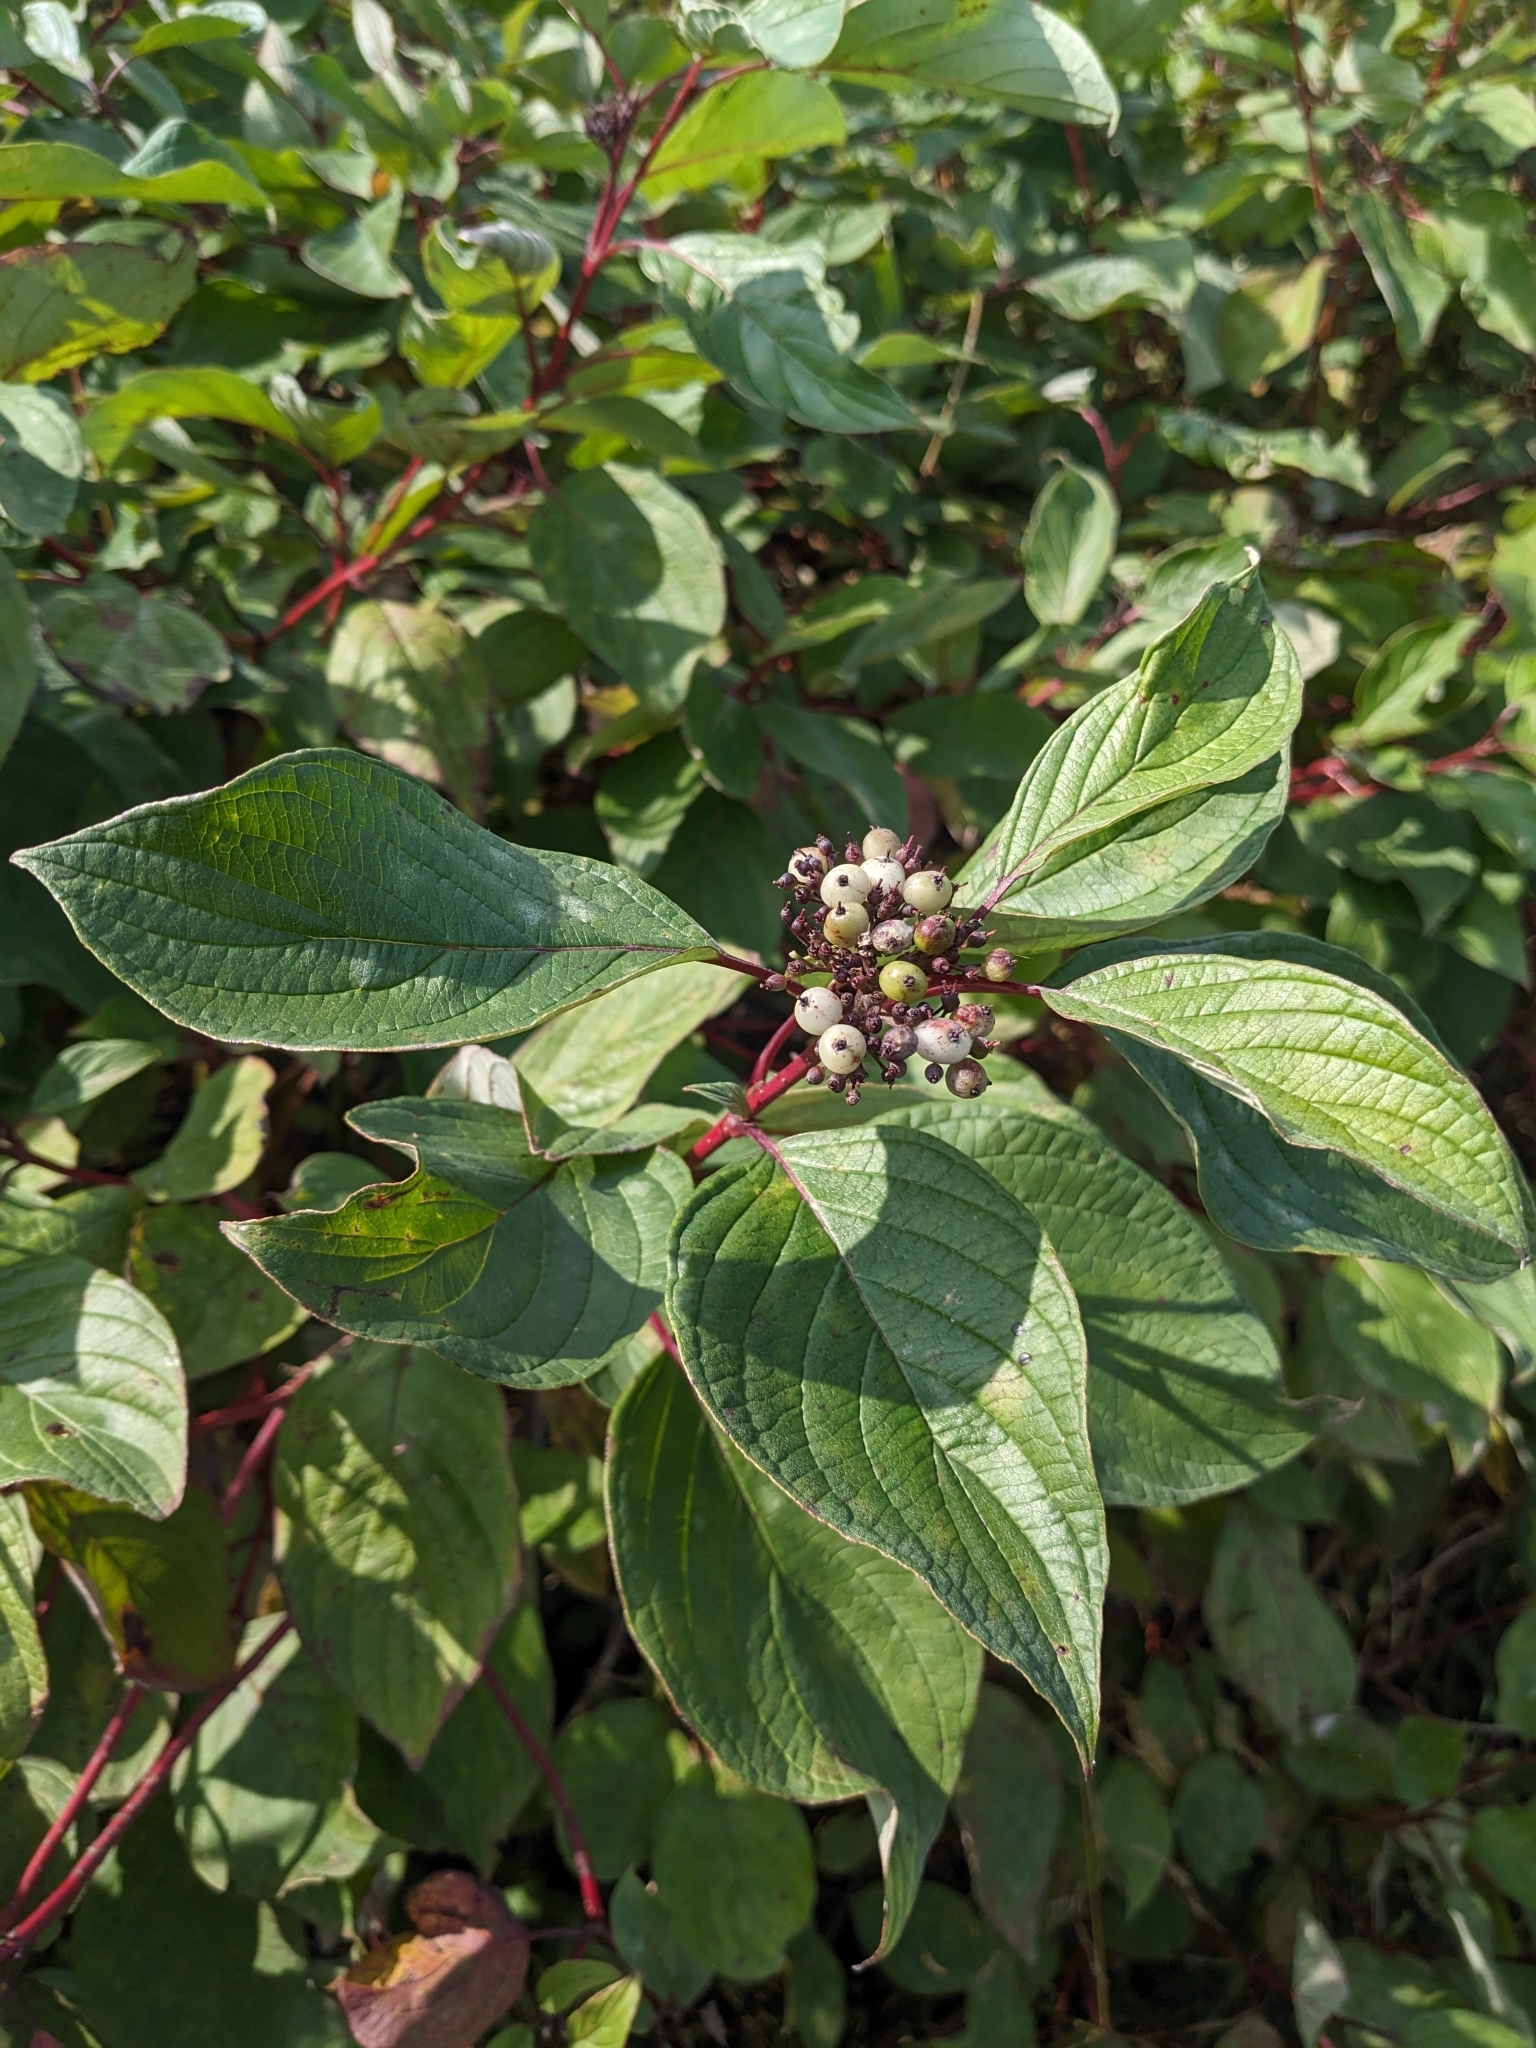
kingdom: Plantae
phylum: Tracheophyta
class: Magnoliopsida
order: Cornales
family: Cornaceae
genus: Cornus
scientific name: Cornus sericea
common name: Red-osier dogwood
